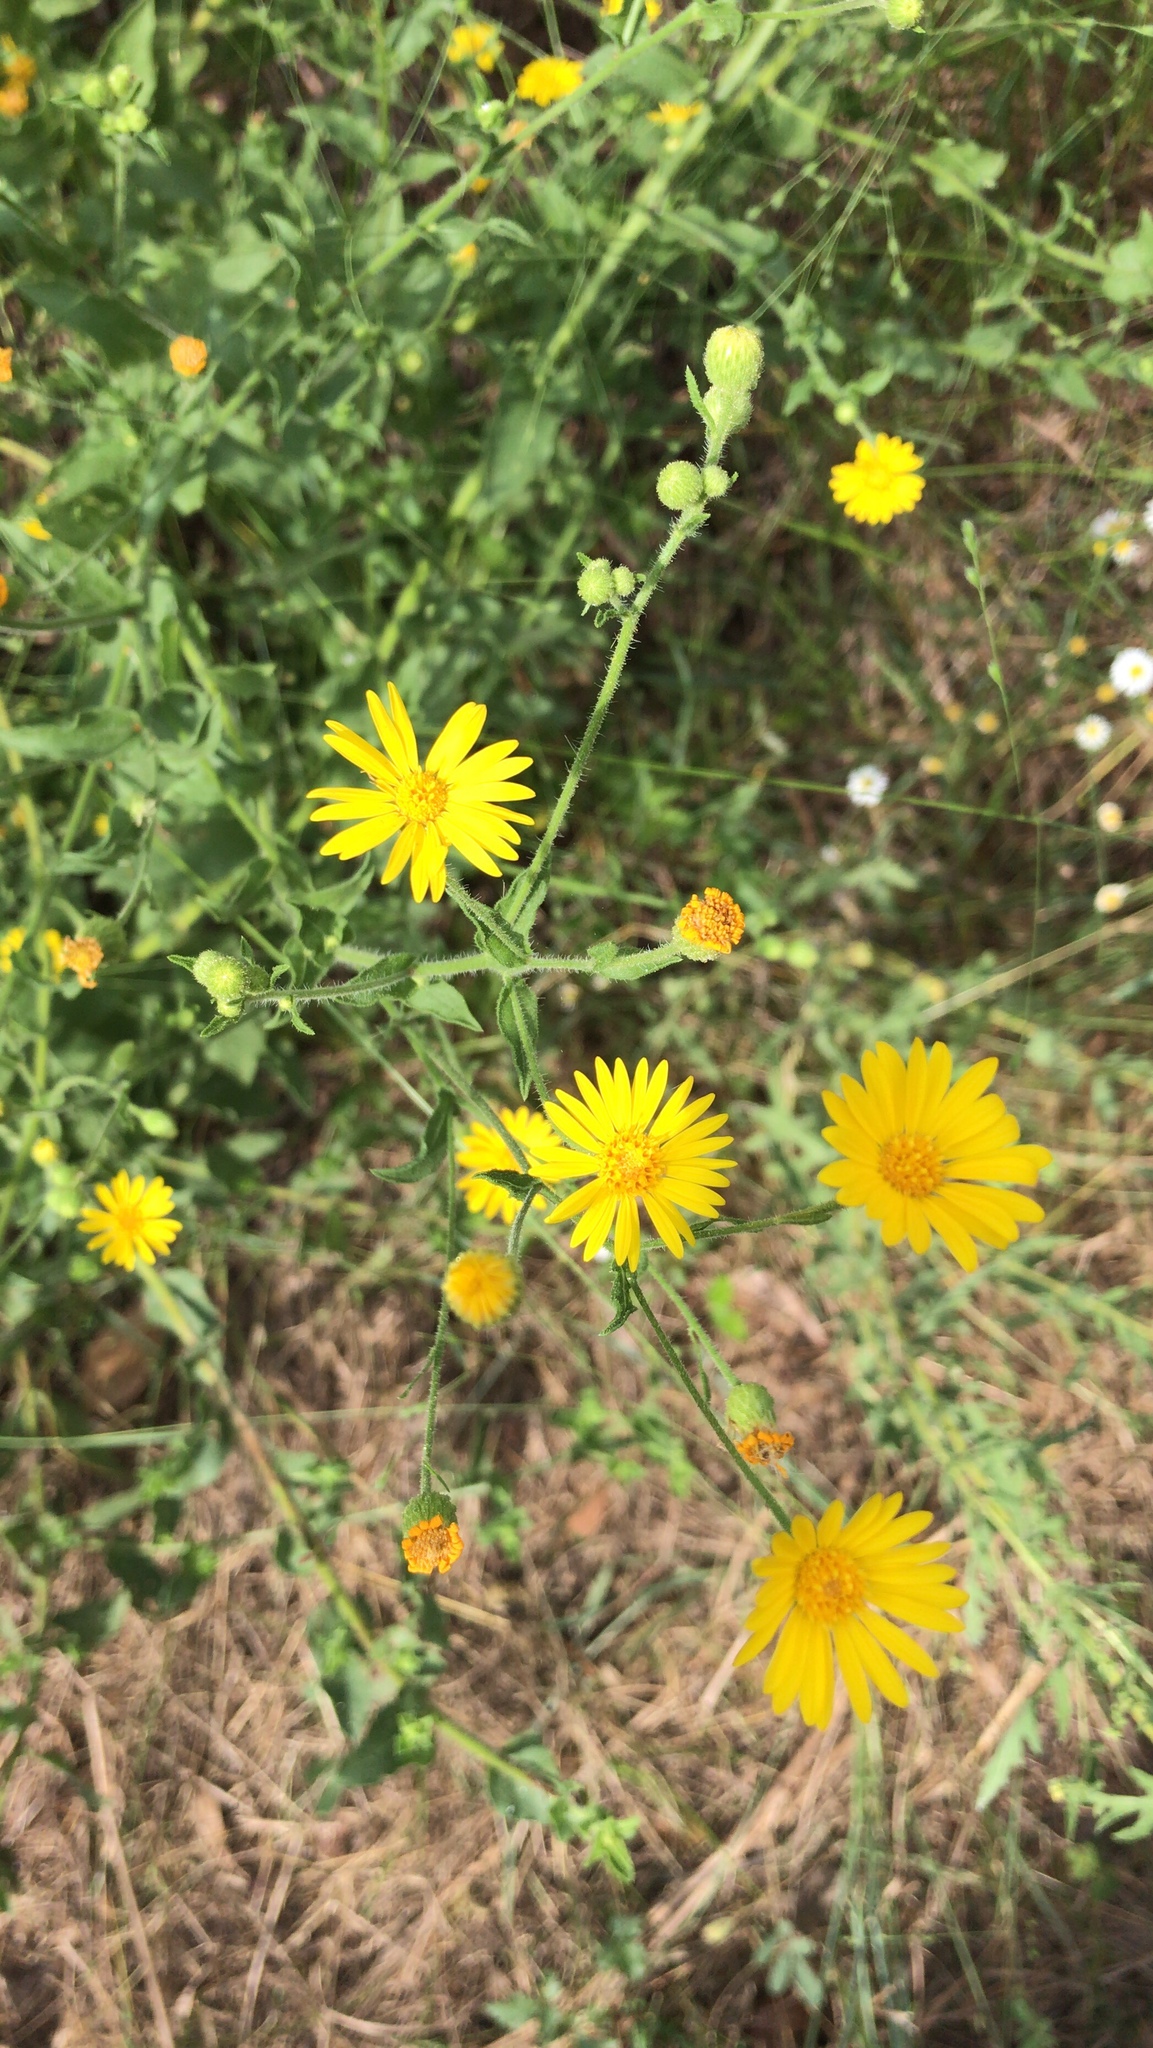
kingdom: Plantae
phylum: Tracheophyta
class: Magnoliopsida
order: Asterales
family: Asteraceae
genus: Heterotheca
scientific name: Heterotheca subaxillaris
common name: Camphorweed
